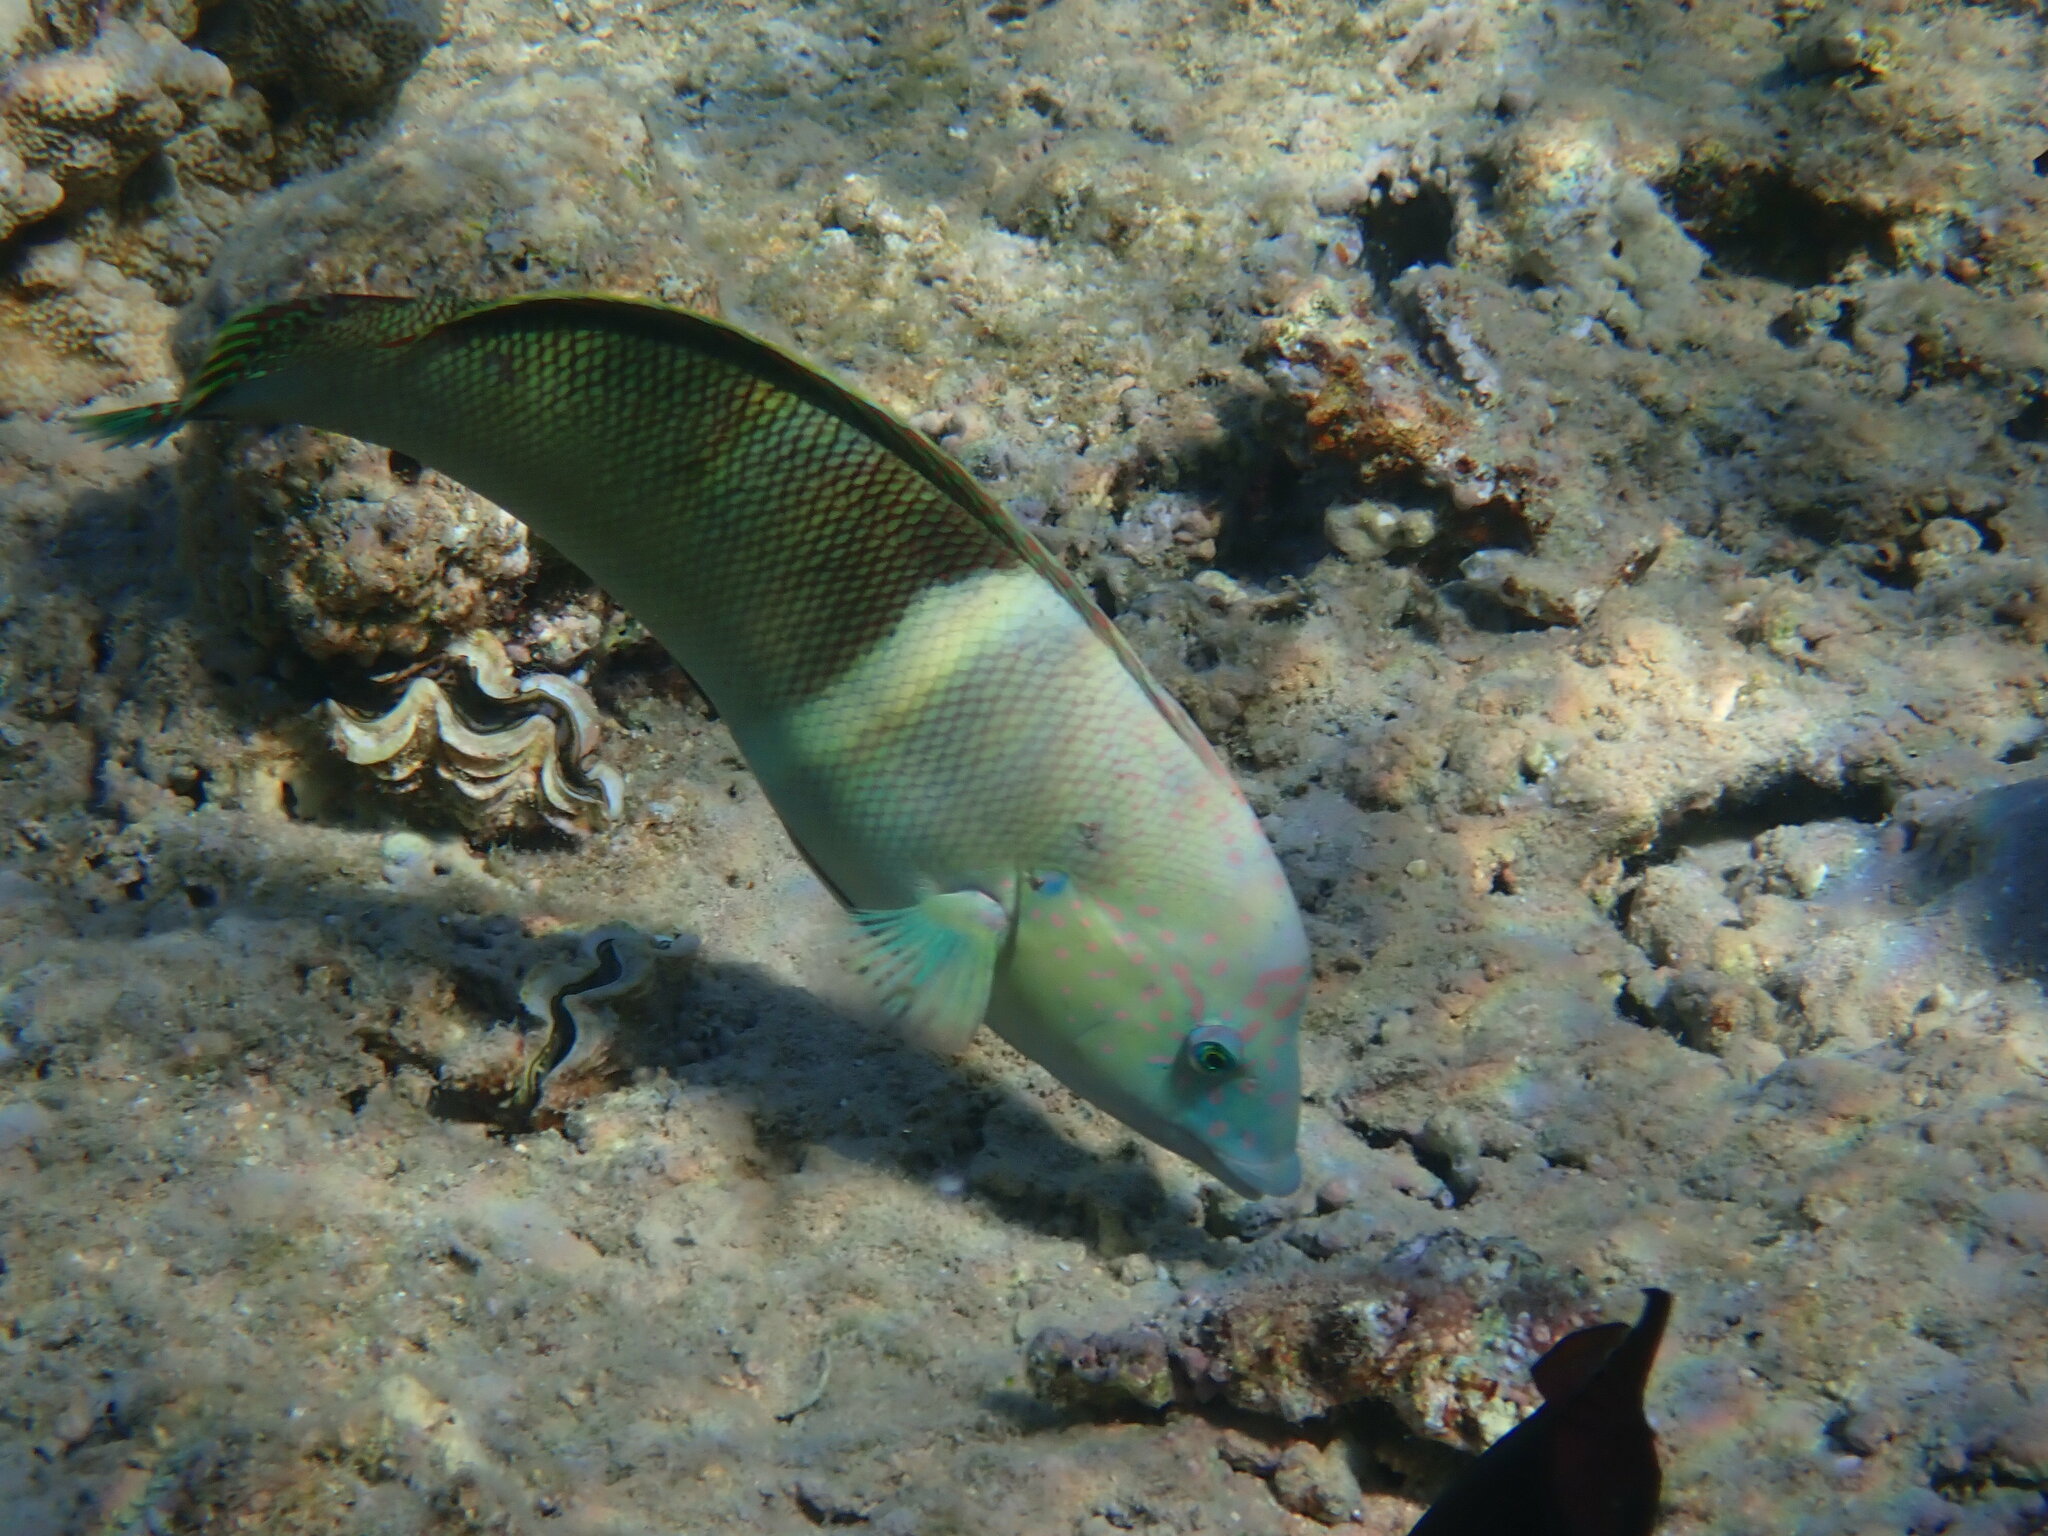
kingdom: Animalia
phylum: Chordata
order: Perciformes
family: Labridae
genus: Coris
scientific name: Coris aygula
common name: Clown coris
